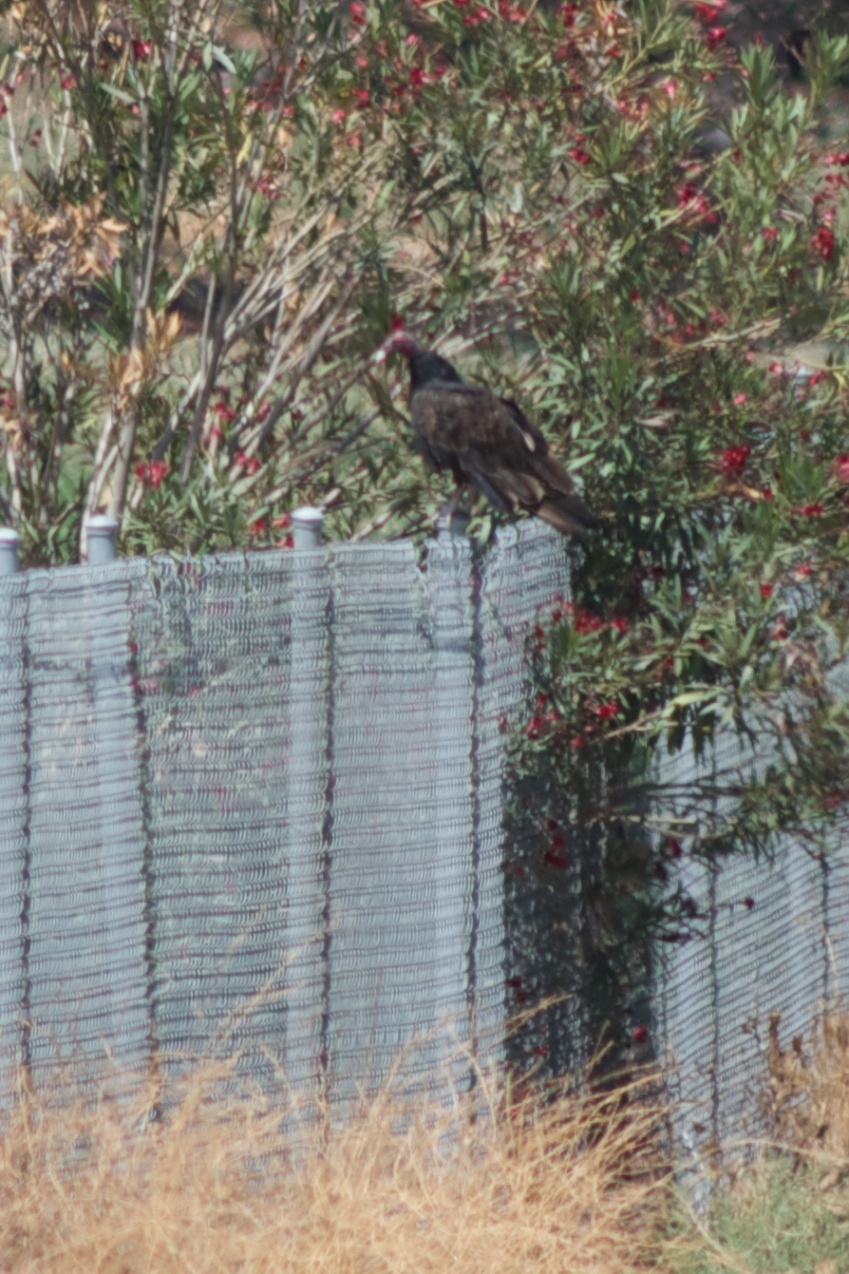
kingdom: Animalia
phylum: Chordata
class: Aves
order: Accipitriformes
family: Cathartidae
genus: Cathartes
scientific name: Cathartes aura
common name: Turkey vulture
